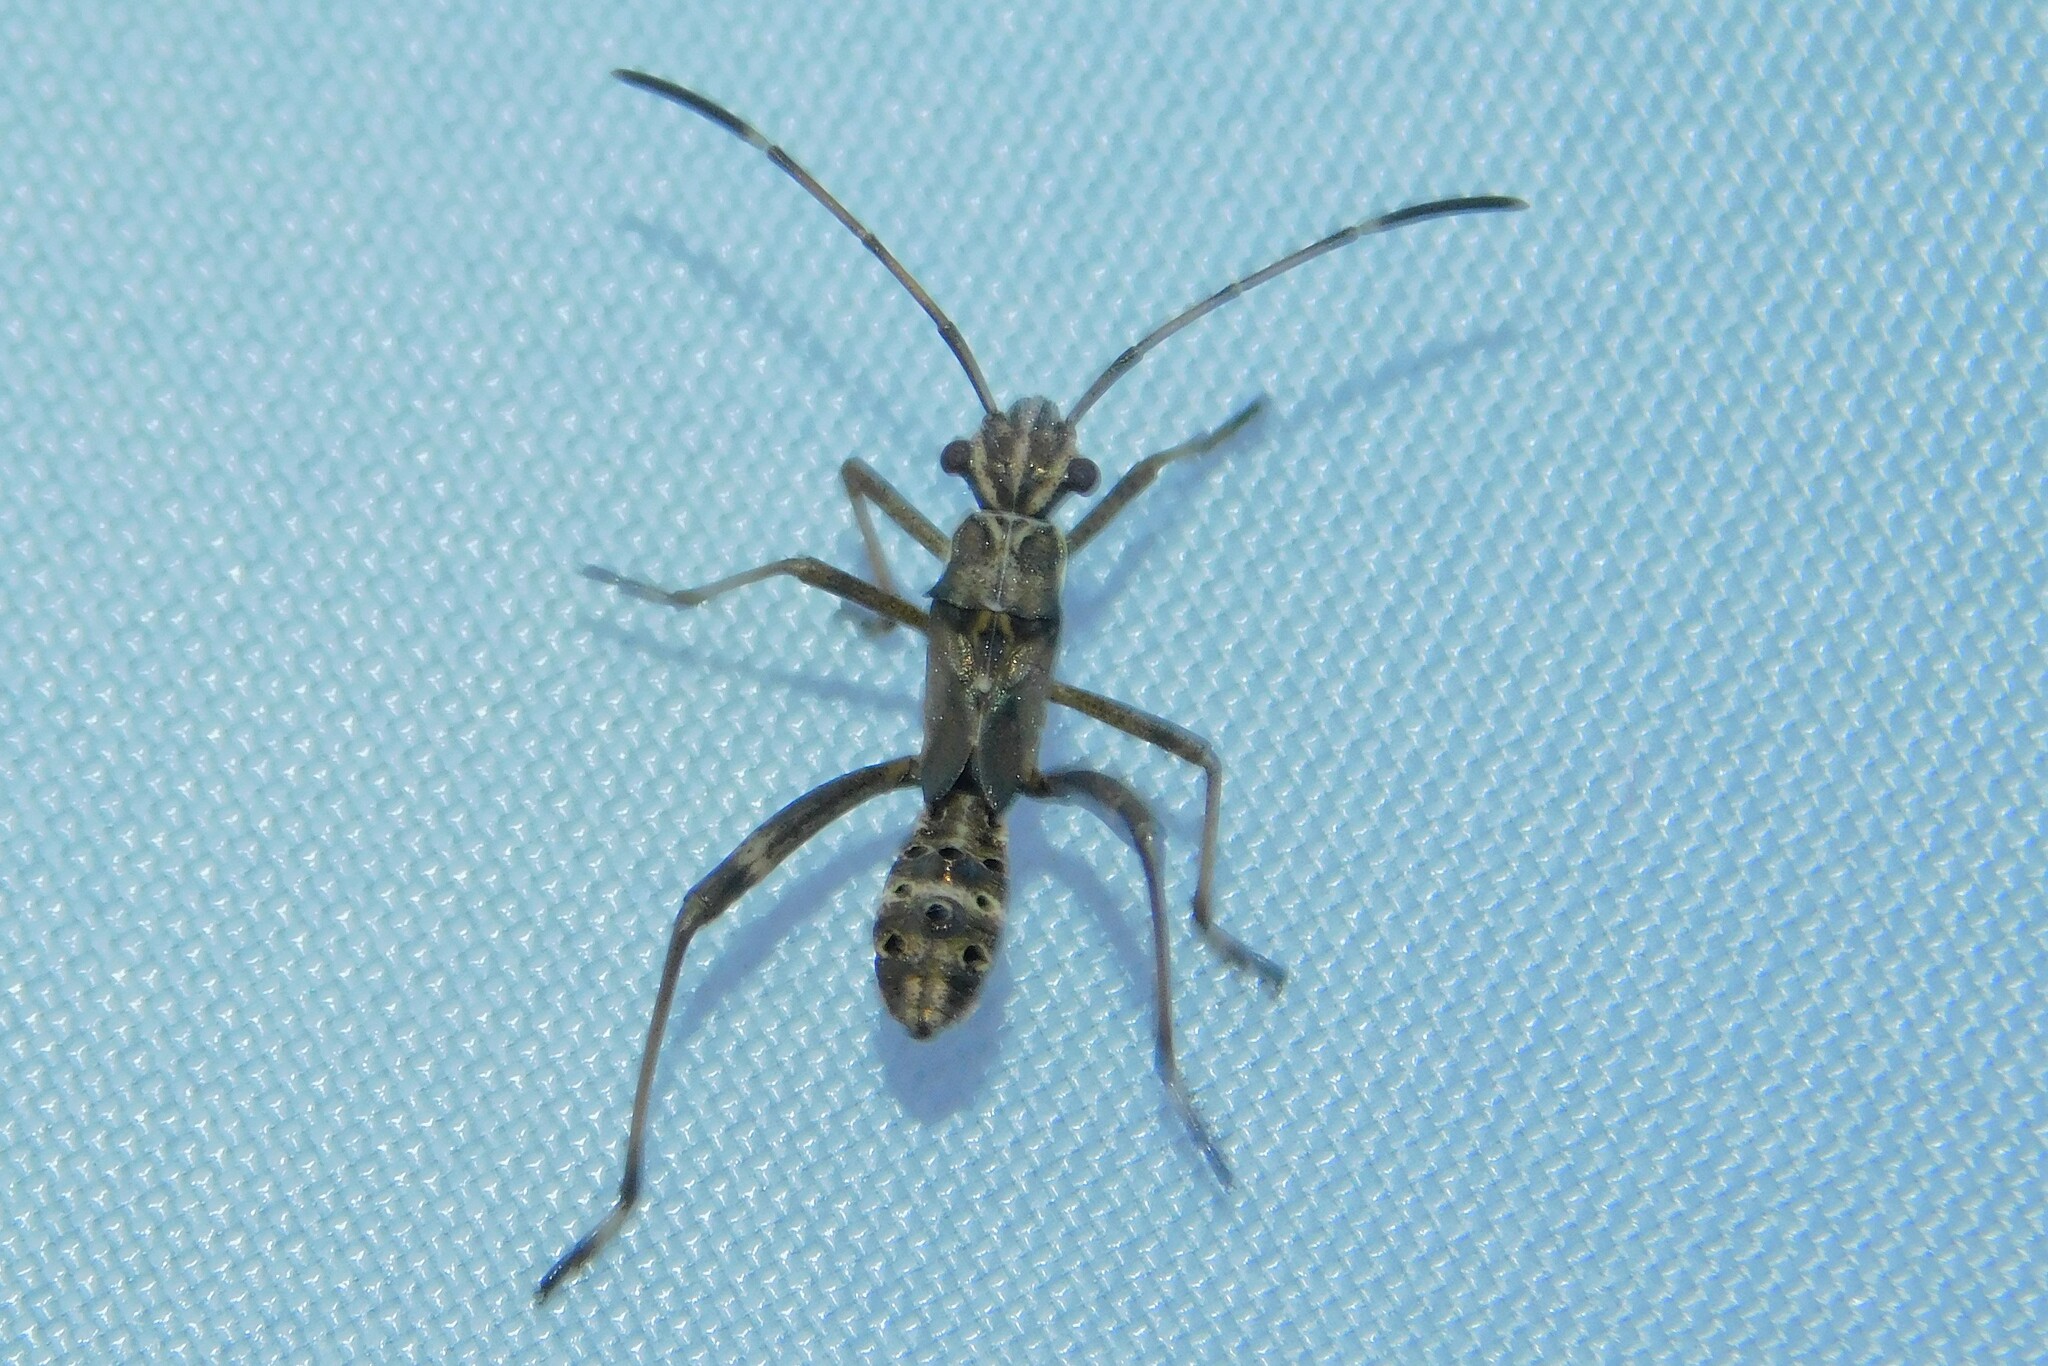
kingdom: Animalia
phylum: Arthropoda
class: Insecta
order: Hemiptera
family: Alydidae
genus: Camptopus
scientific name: Camptopus lateralis
